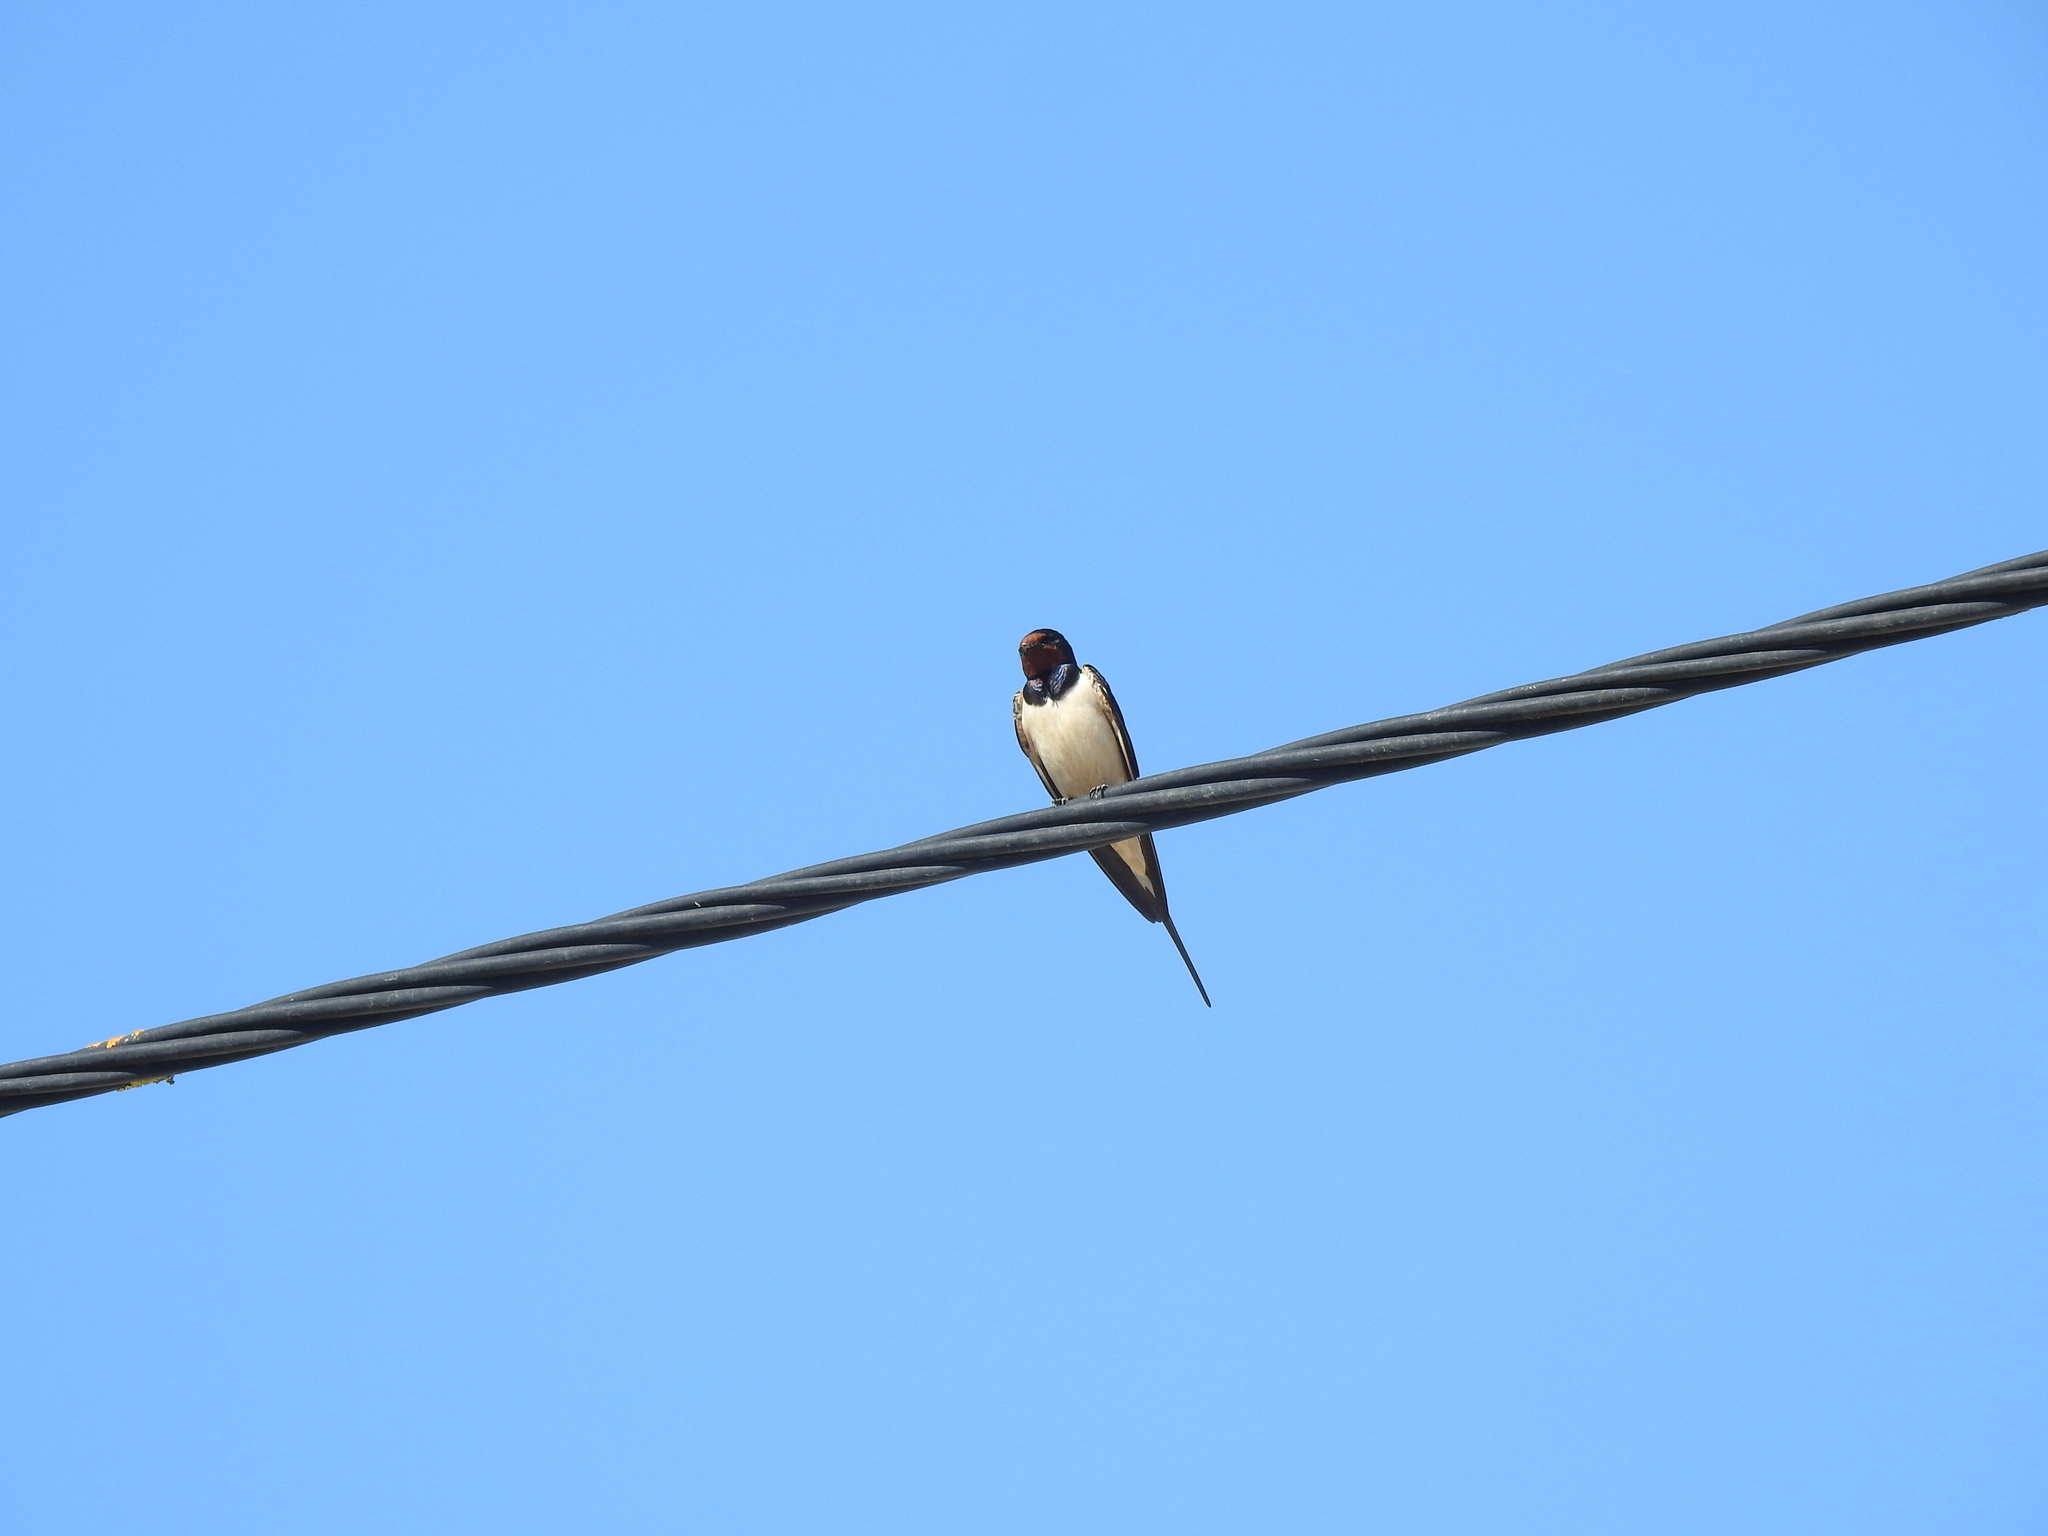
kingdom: Animalia
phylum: Chordata
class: Aves
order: Passeriformes
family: Hirundinidae
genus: Hirundo
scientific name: Hirundo rustica
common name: Barn swallow
